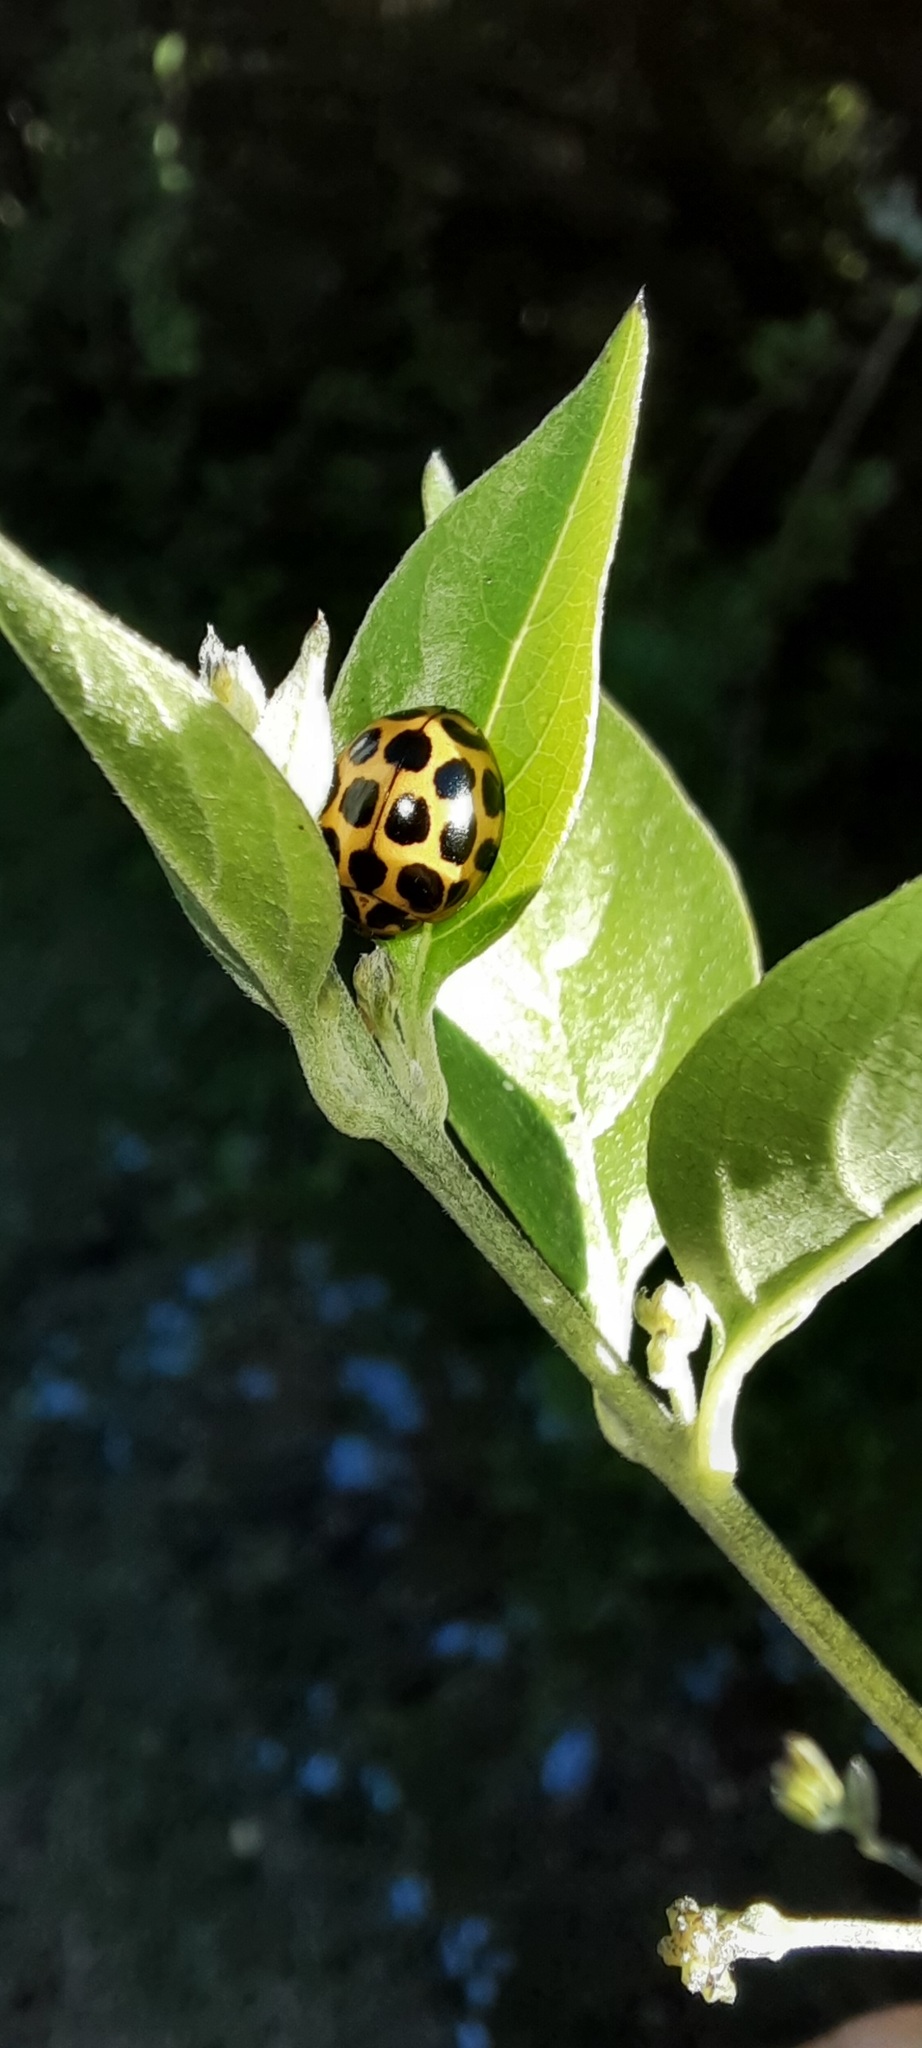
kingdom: Animalia
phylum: Arthropoda
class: Insecta
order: Coleoptera
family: Coccinellidae
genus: Harmonia
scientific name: Harmonia conformis
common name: Common spotted ladybird beetle
